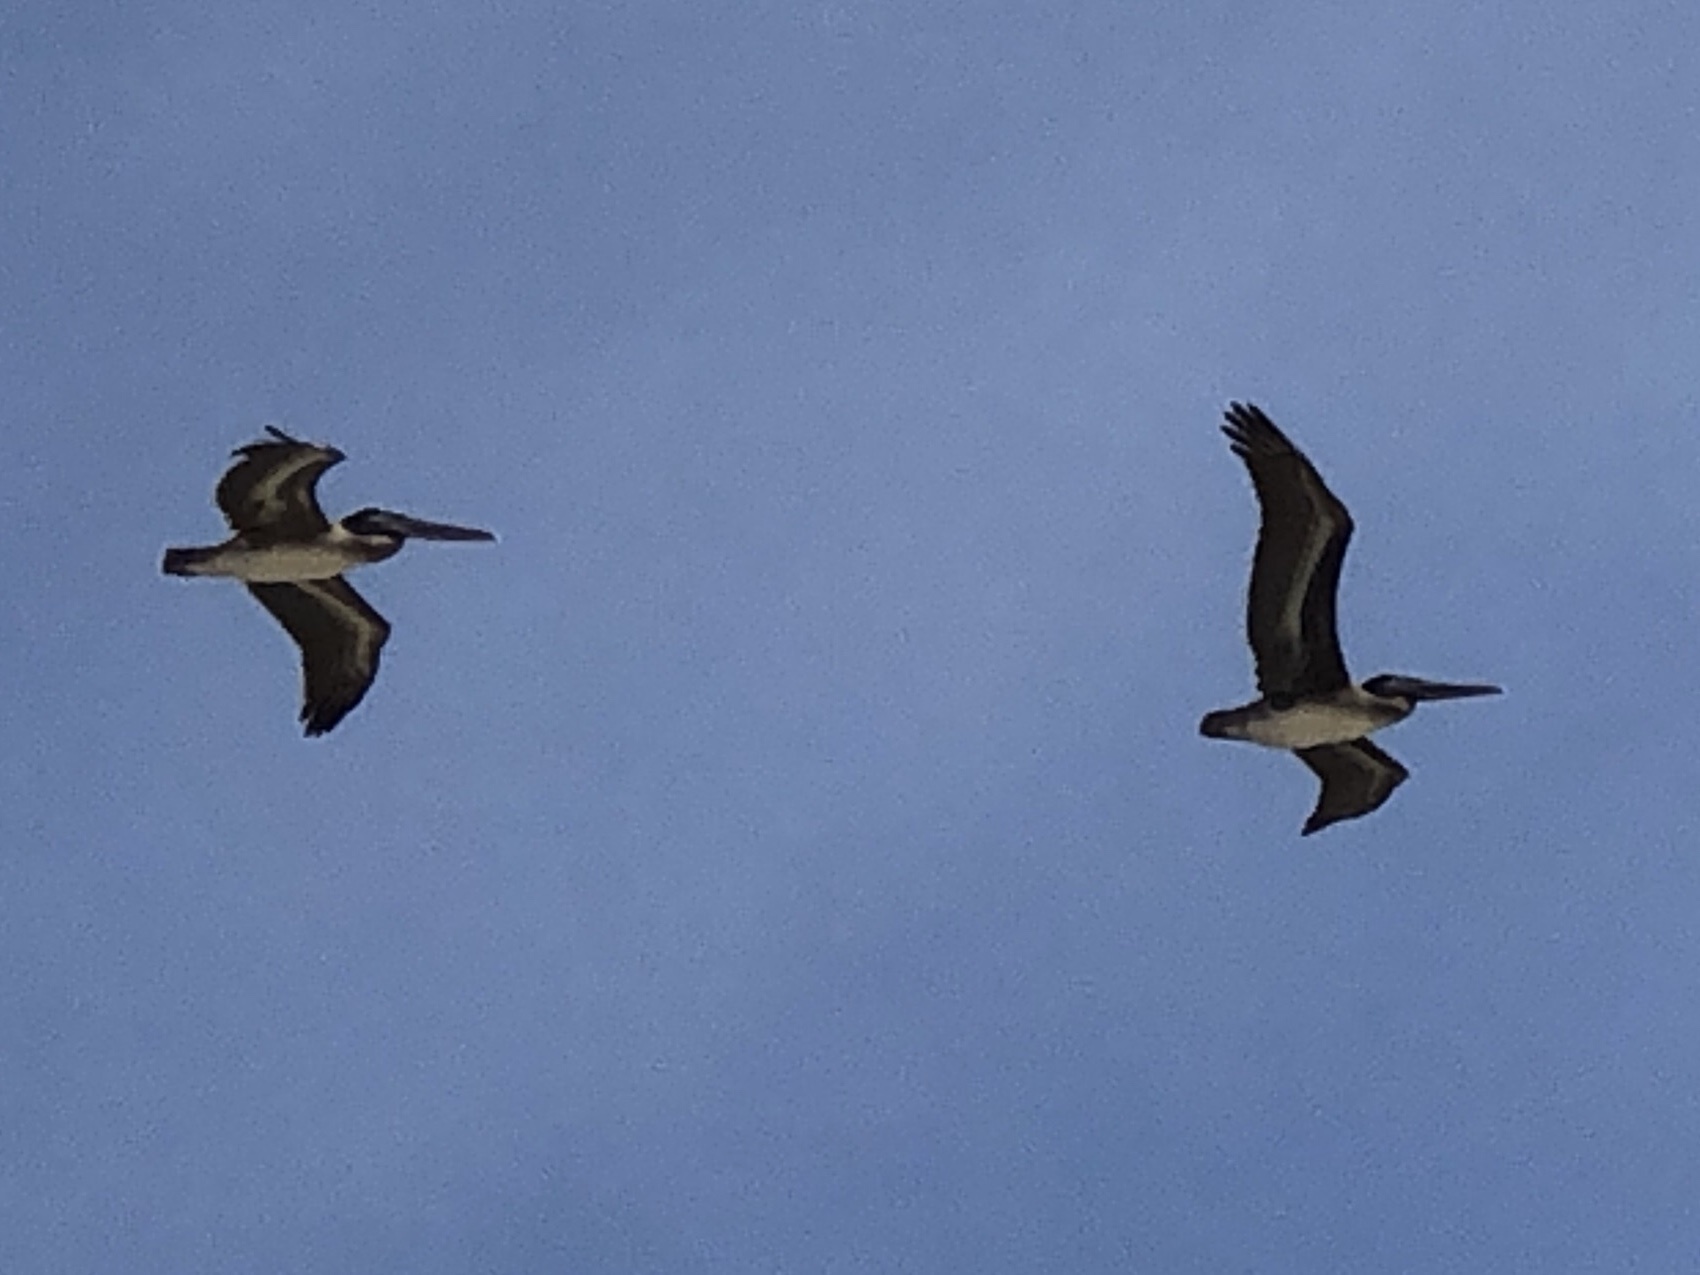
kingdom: Animalia
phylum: Chordata
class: Aves
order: Pelecaniformes
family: Pelecanidae
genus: Pelecanus
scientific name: Pelecanus occidentalis
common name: Brown pelican
